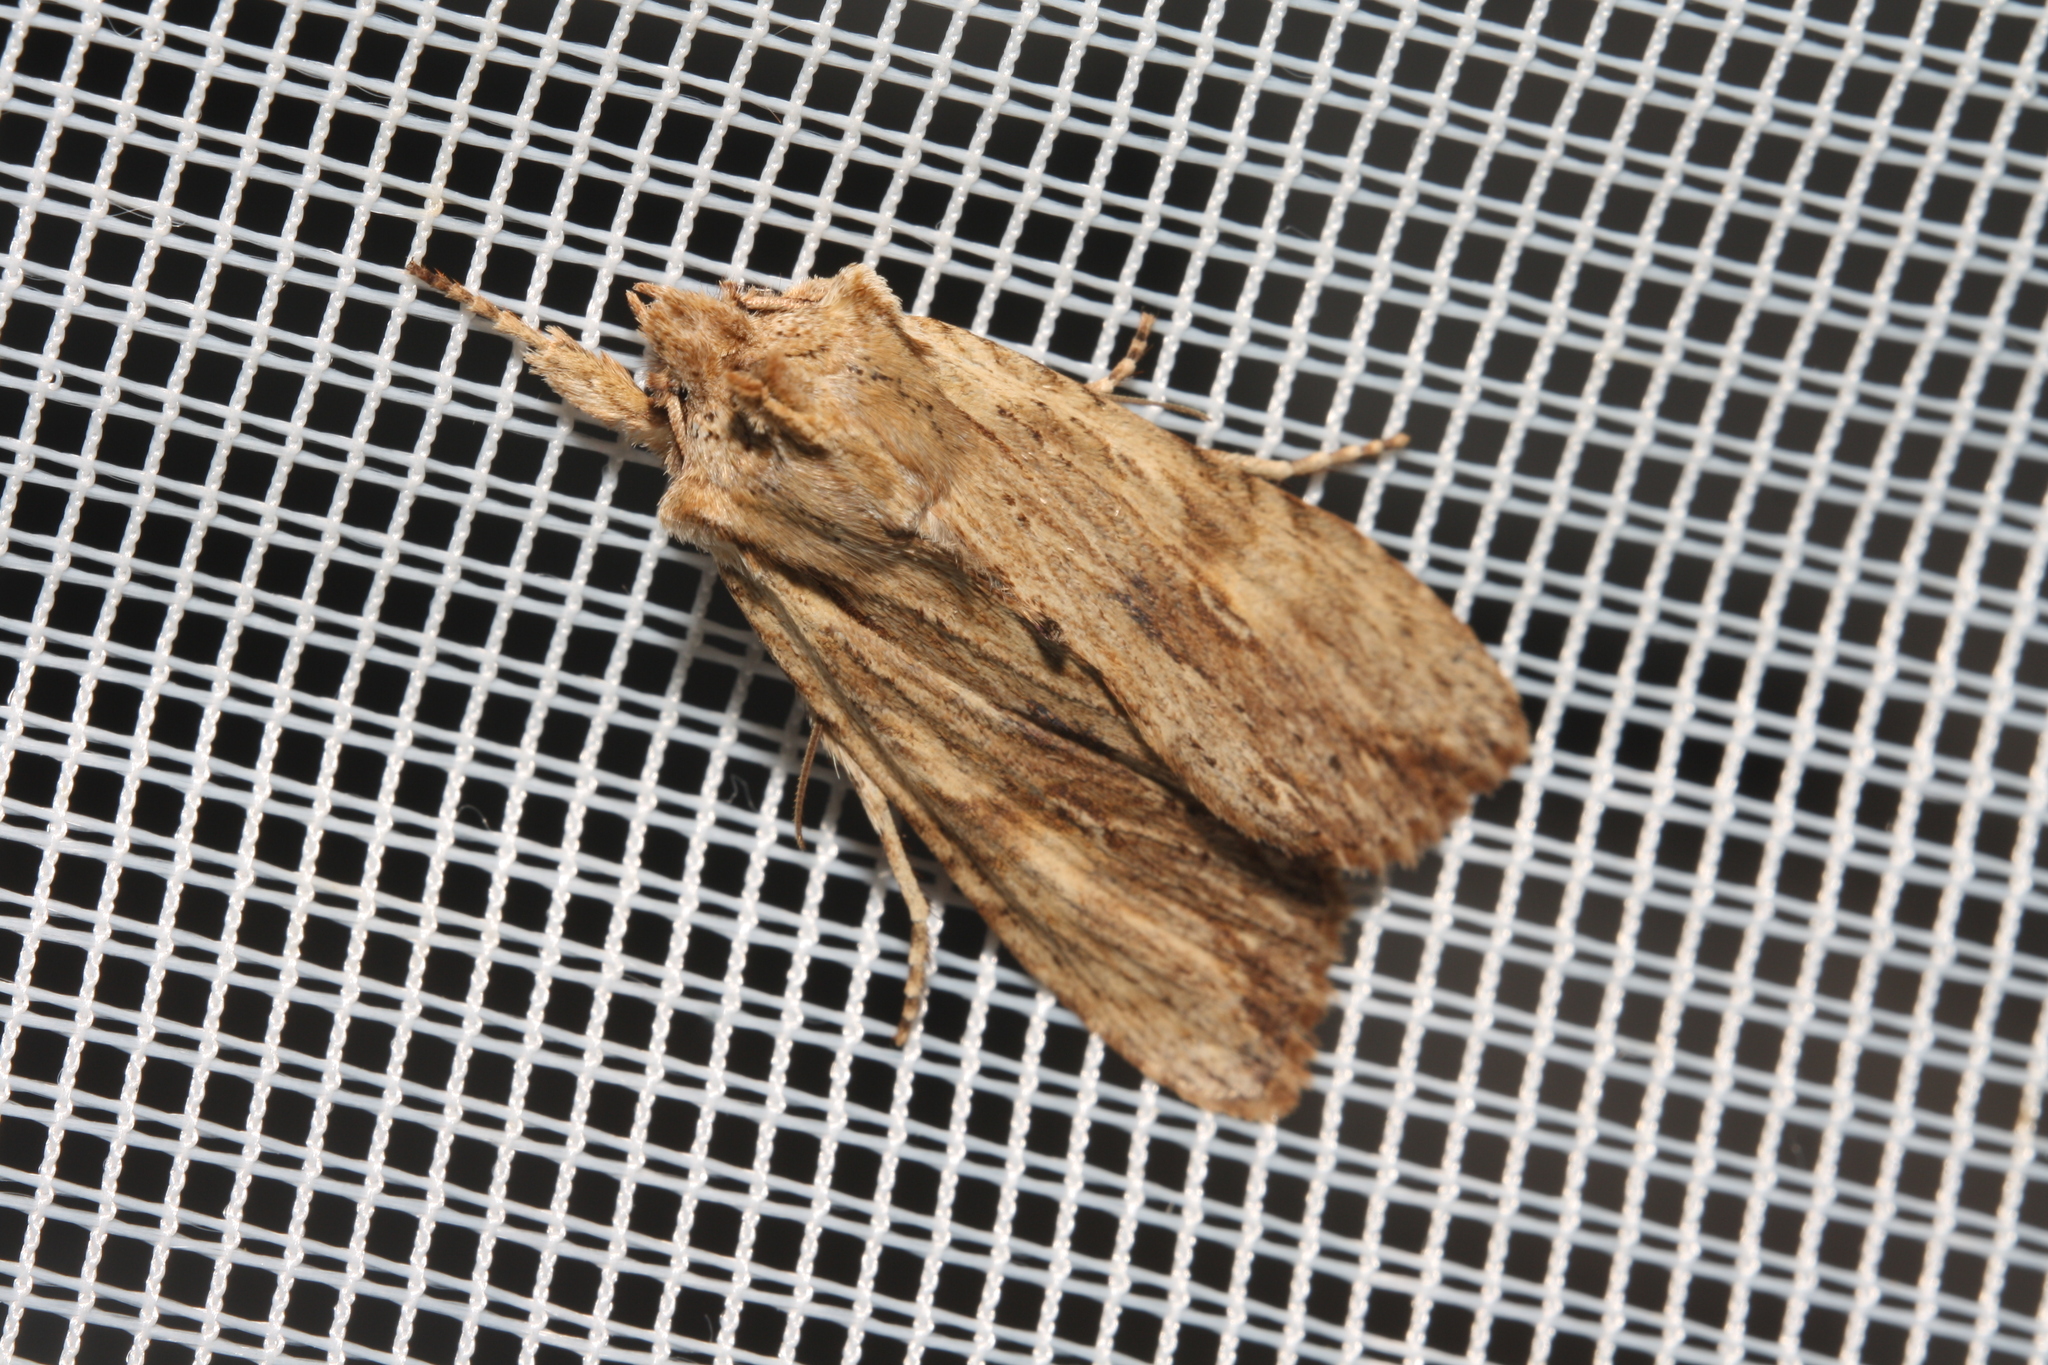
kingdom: Animalia
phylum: Arthropoda
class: Insecta
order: Lepidoptera
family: Noctuidae
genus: Lithophane
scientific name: Lithophane socia
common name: Pale pinion
